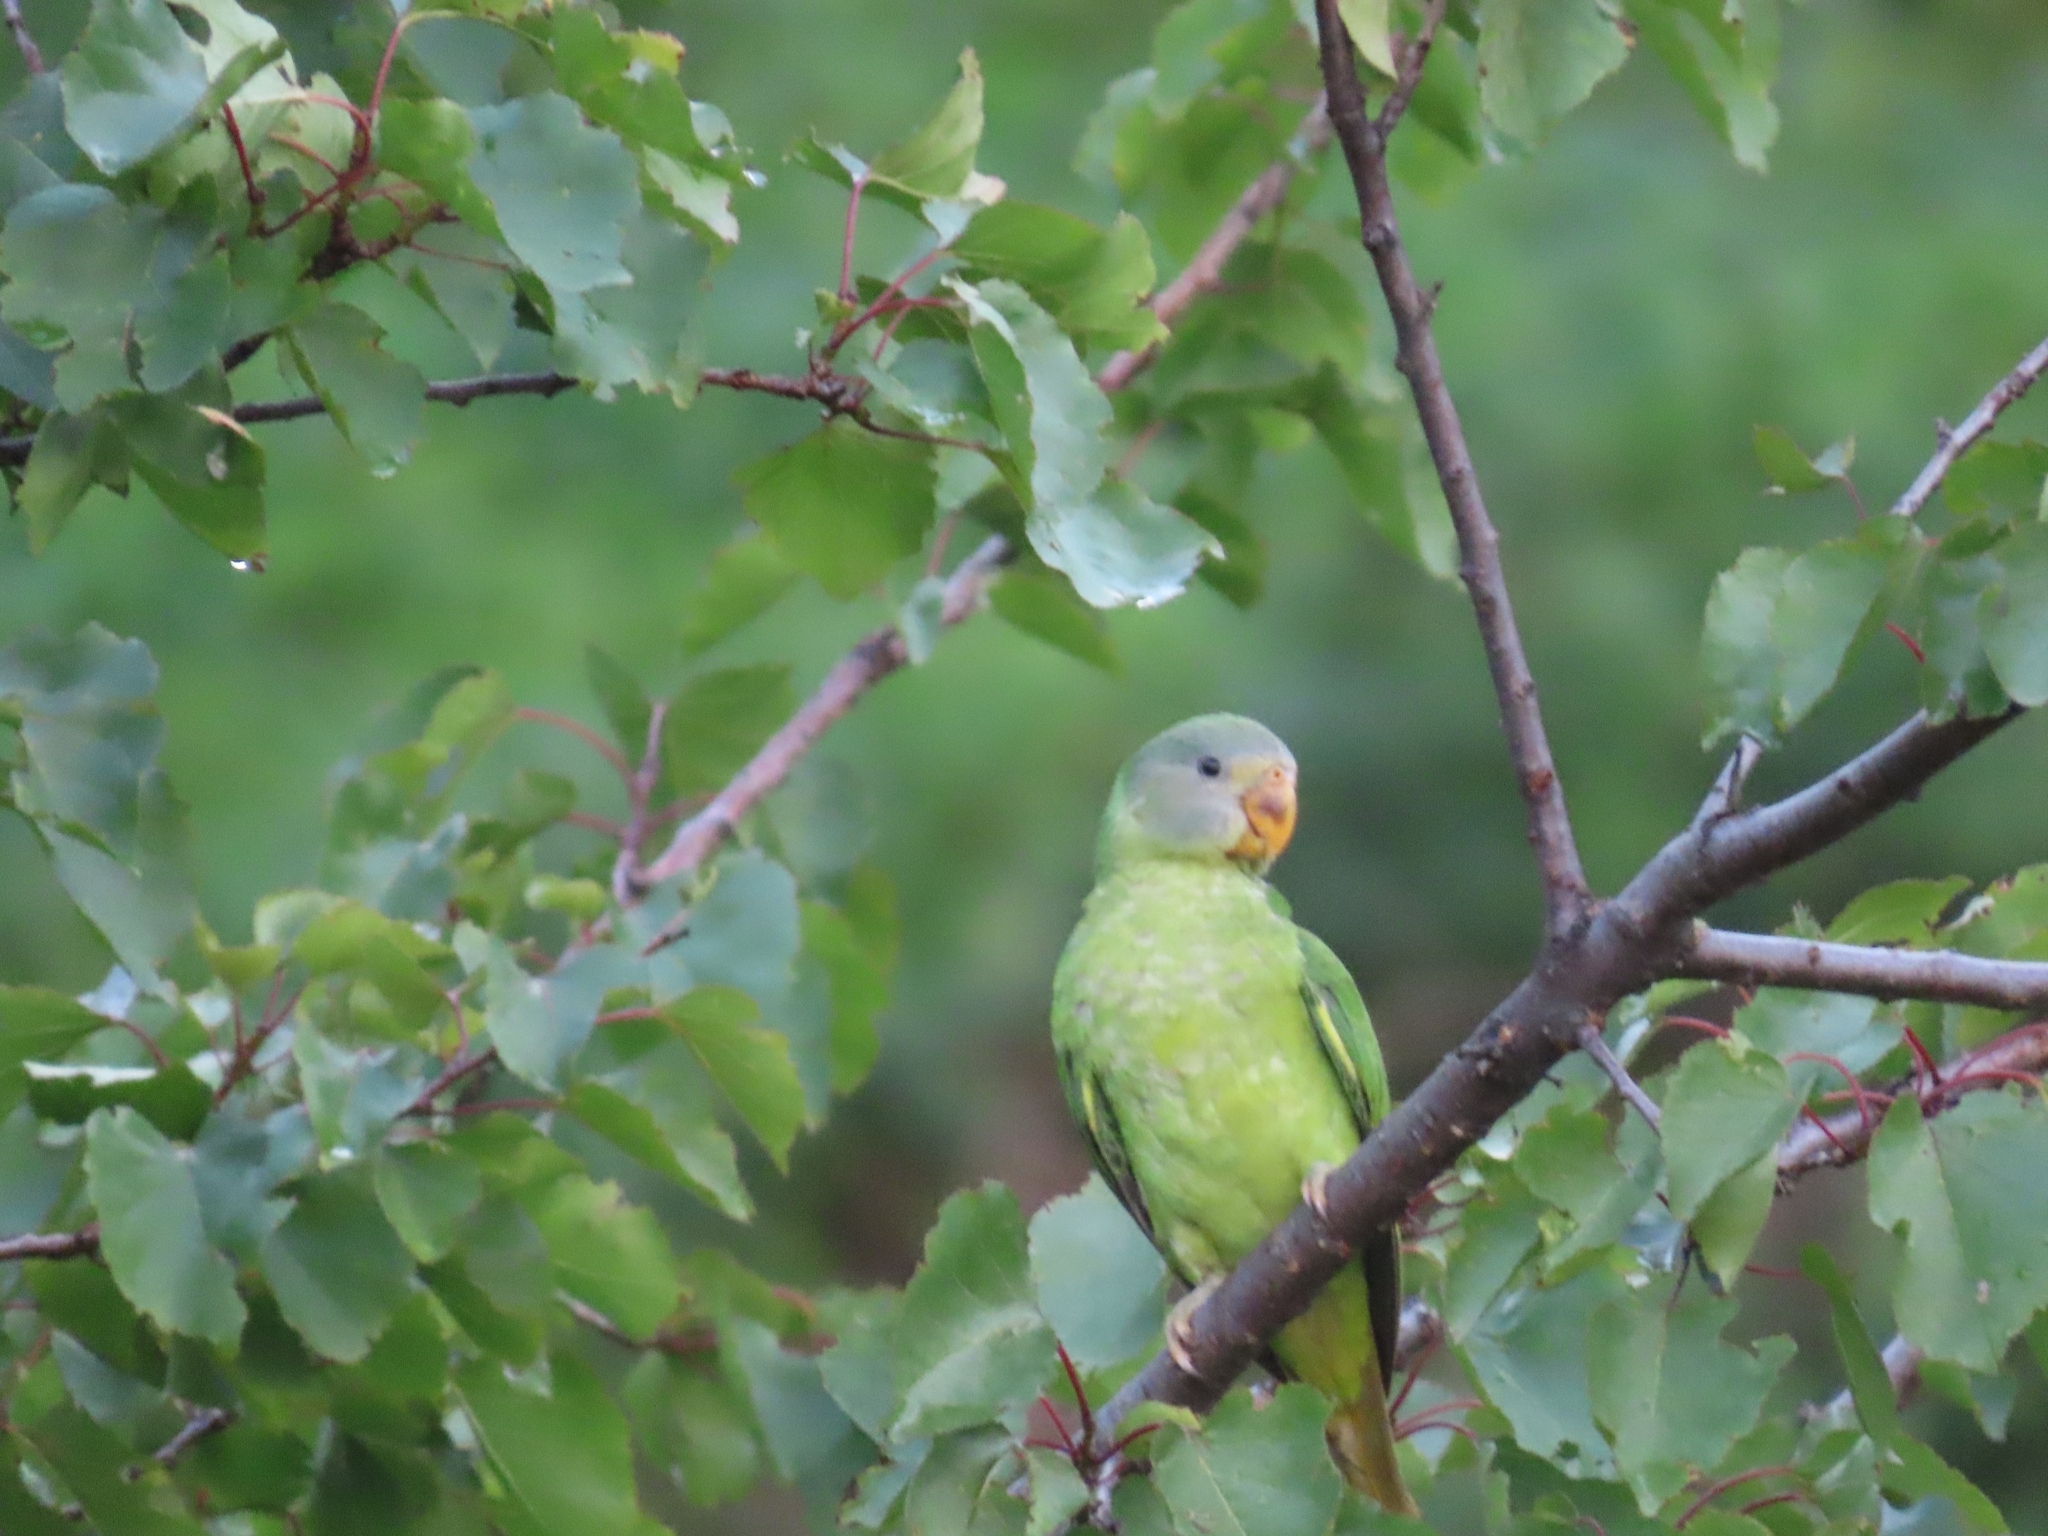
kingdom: Animalia
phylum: Chordata
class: Aves
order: Psittaciformes
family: Psittacidae
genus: Psittacula
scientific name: Psittacula roseata
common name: Blossom-headed parakeet
